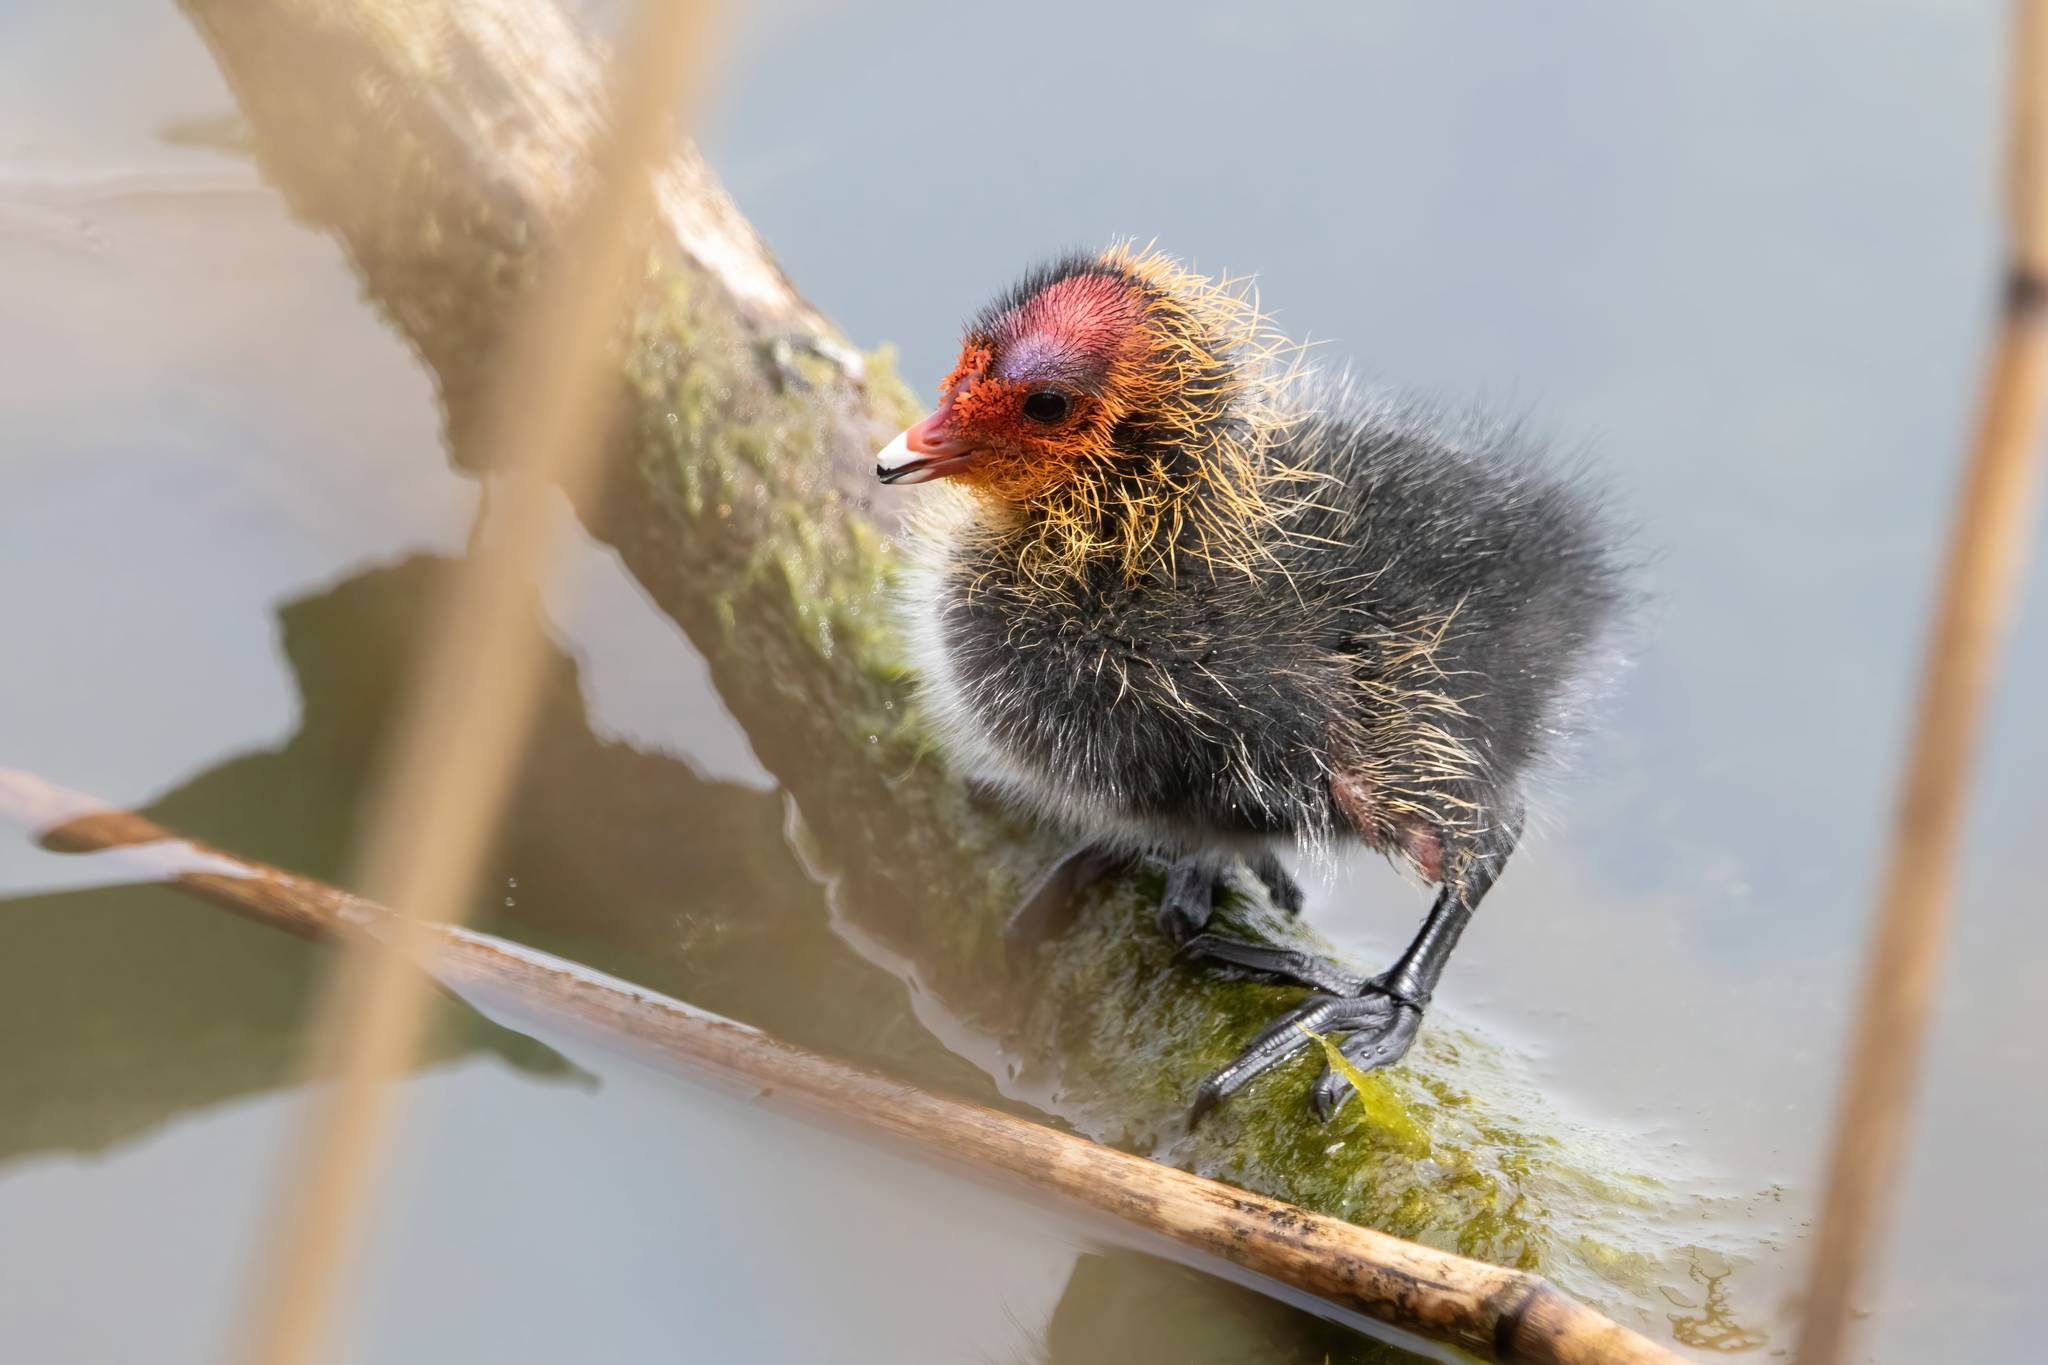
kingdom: Animalia
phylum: Chordata
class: Aves
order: Gruiformes
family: Rallidae
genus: Fulica
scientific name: Fulica atra
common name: Eurasian coot
